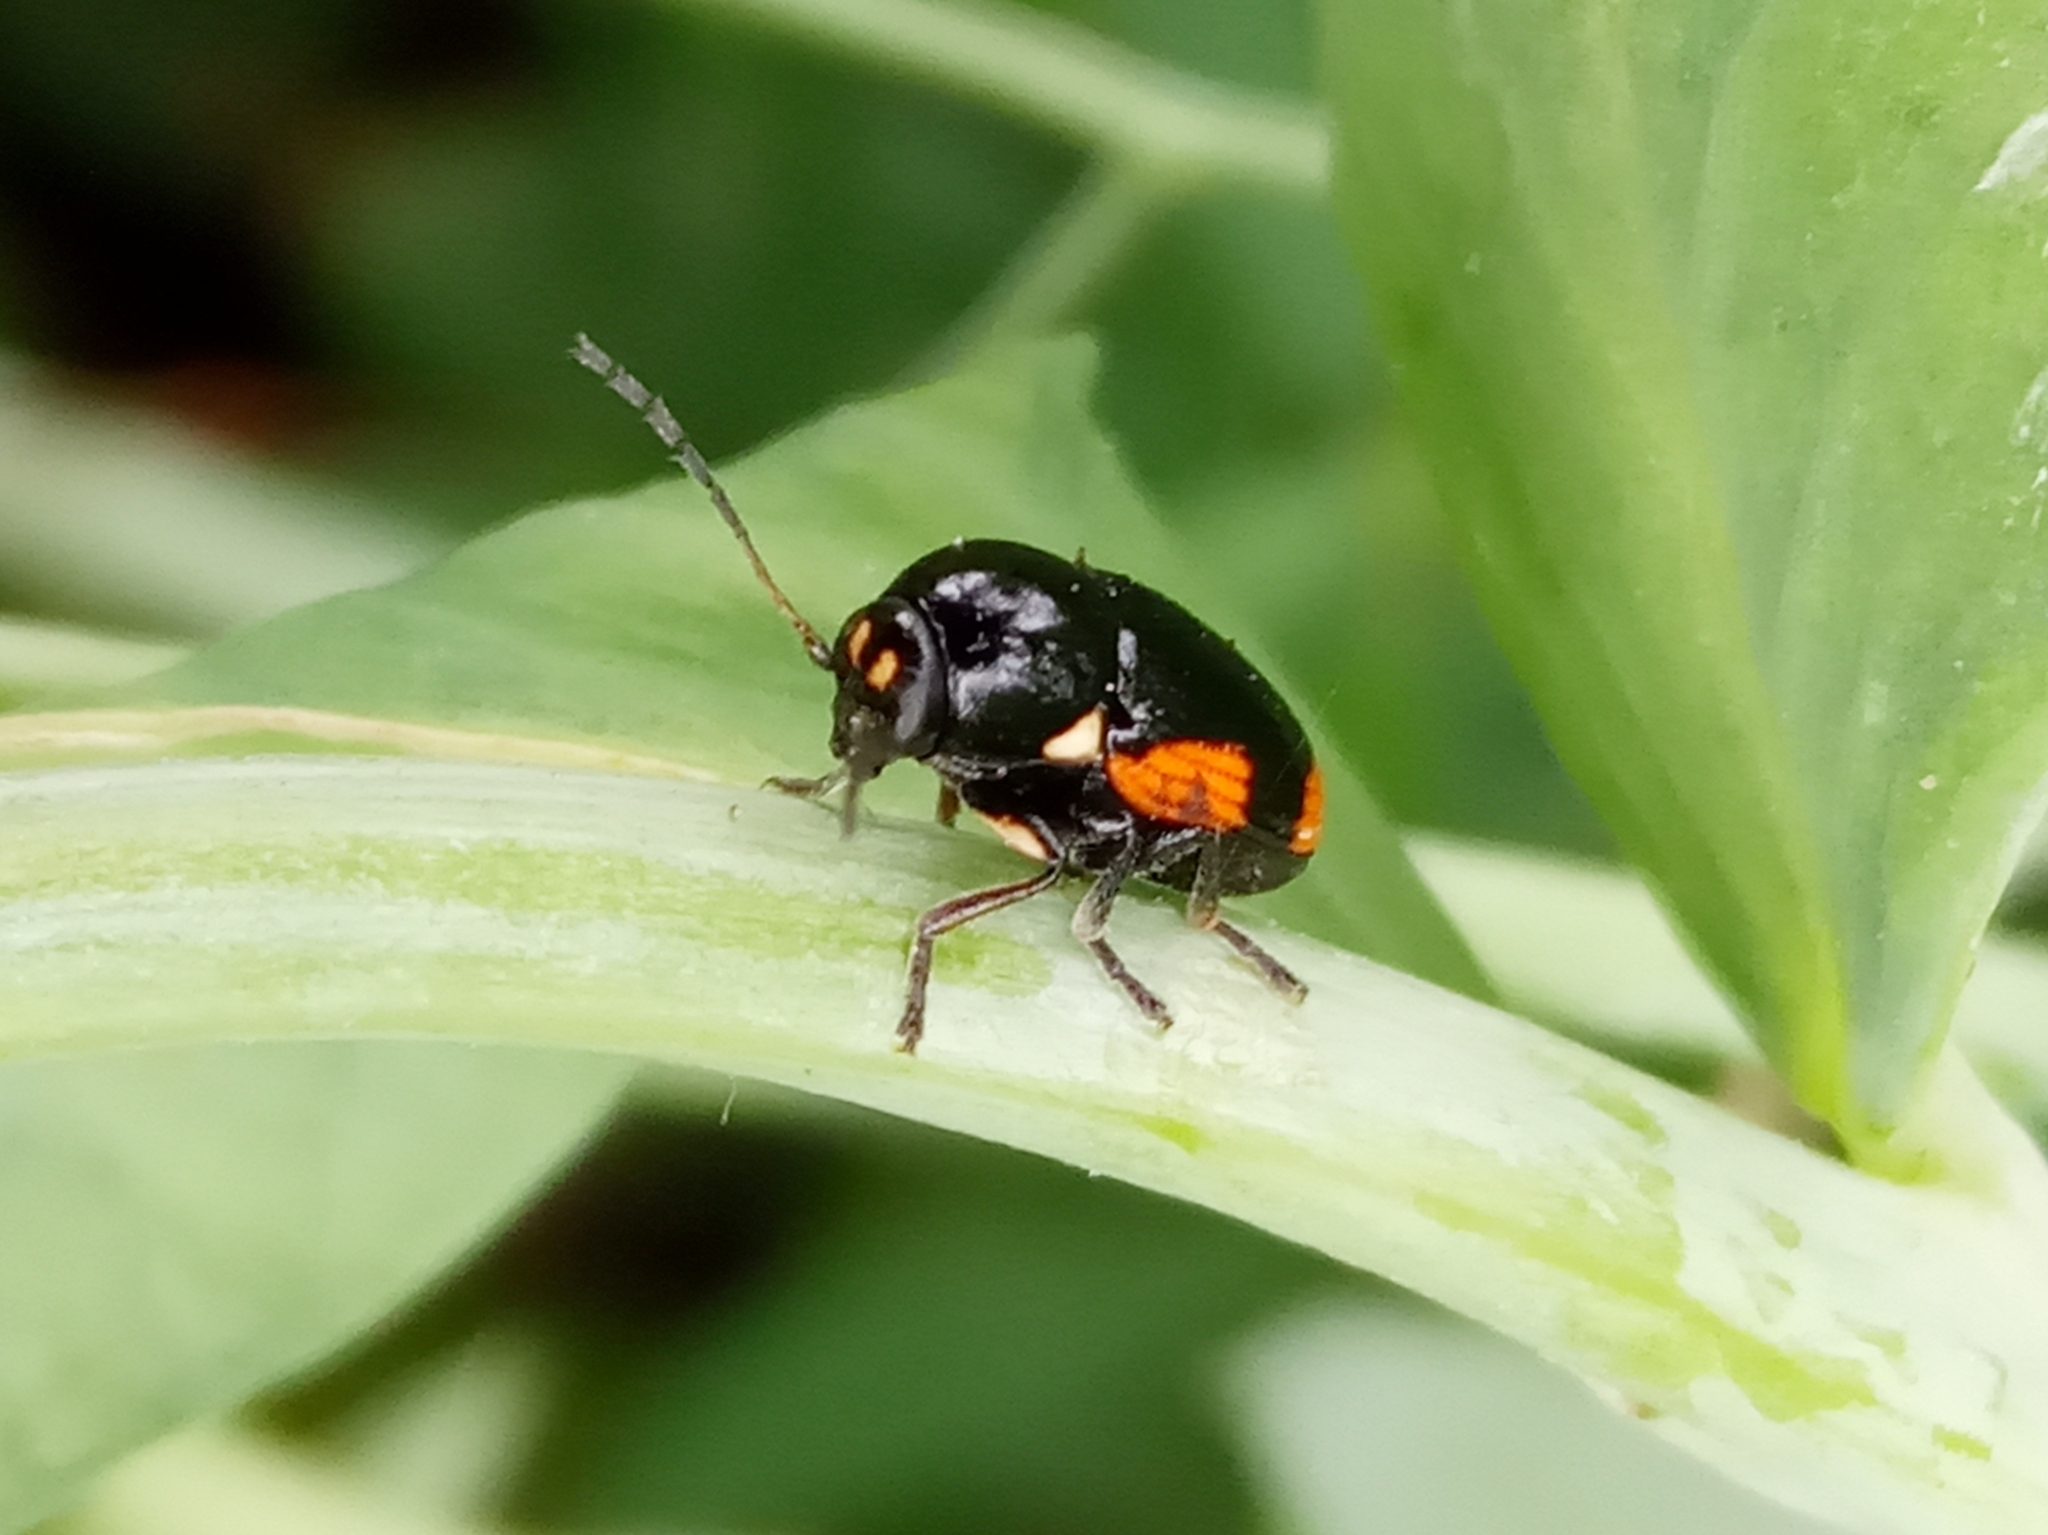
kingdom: Animalia
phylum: Arthropoda
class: Insecta
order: Coleoptera
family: Chrysomelidae
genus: Cryptocephalus
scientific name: Cryptocephalus moraei
